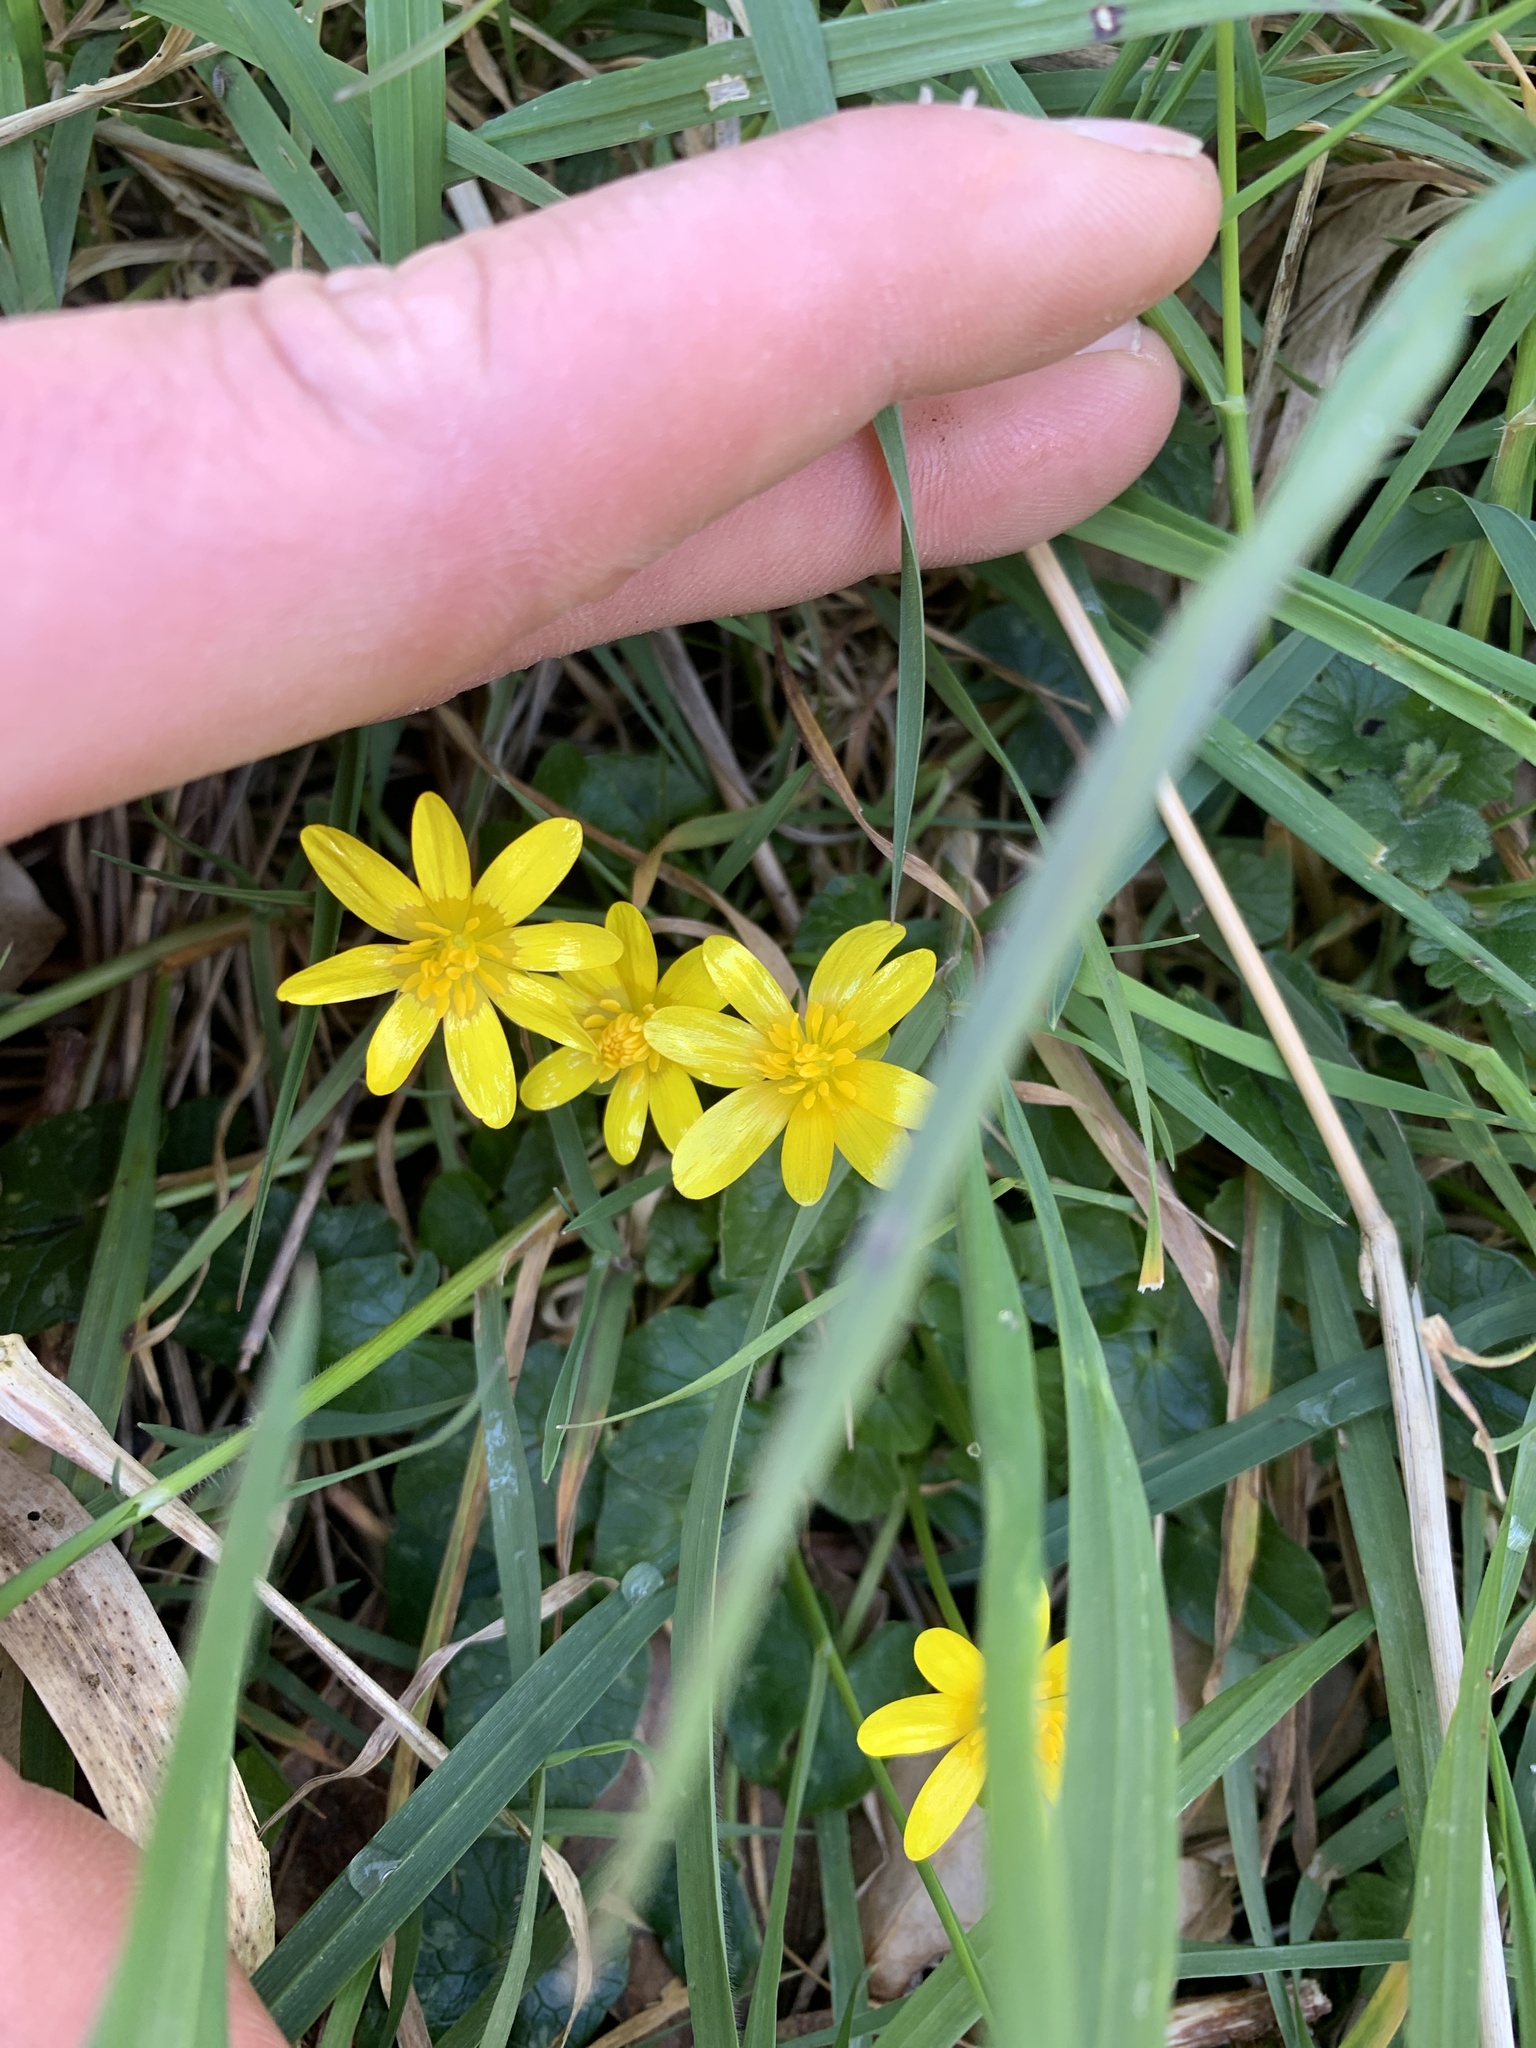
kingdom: Plantae
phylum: Tracheophyta
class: Magnoliopsida
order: Ranunculales
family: Ranunculaceae
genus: Ficaria
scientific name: Ficaria verna
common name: Lesser celandine
